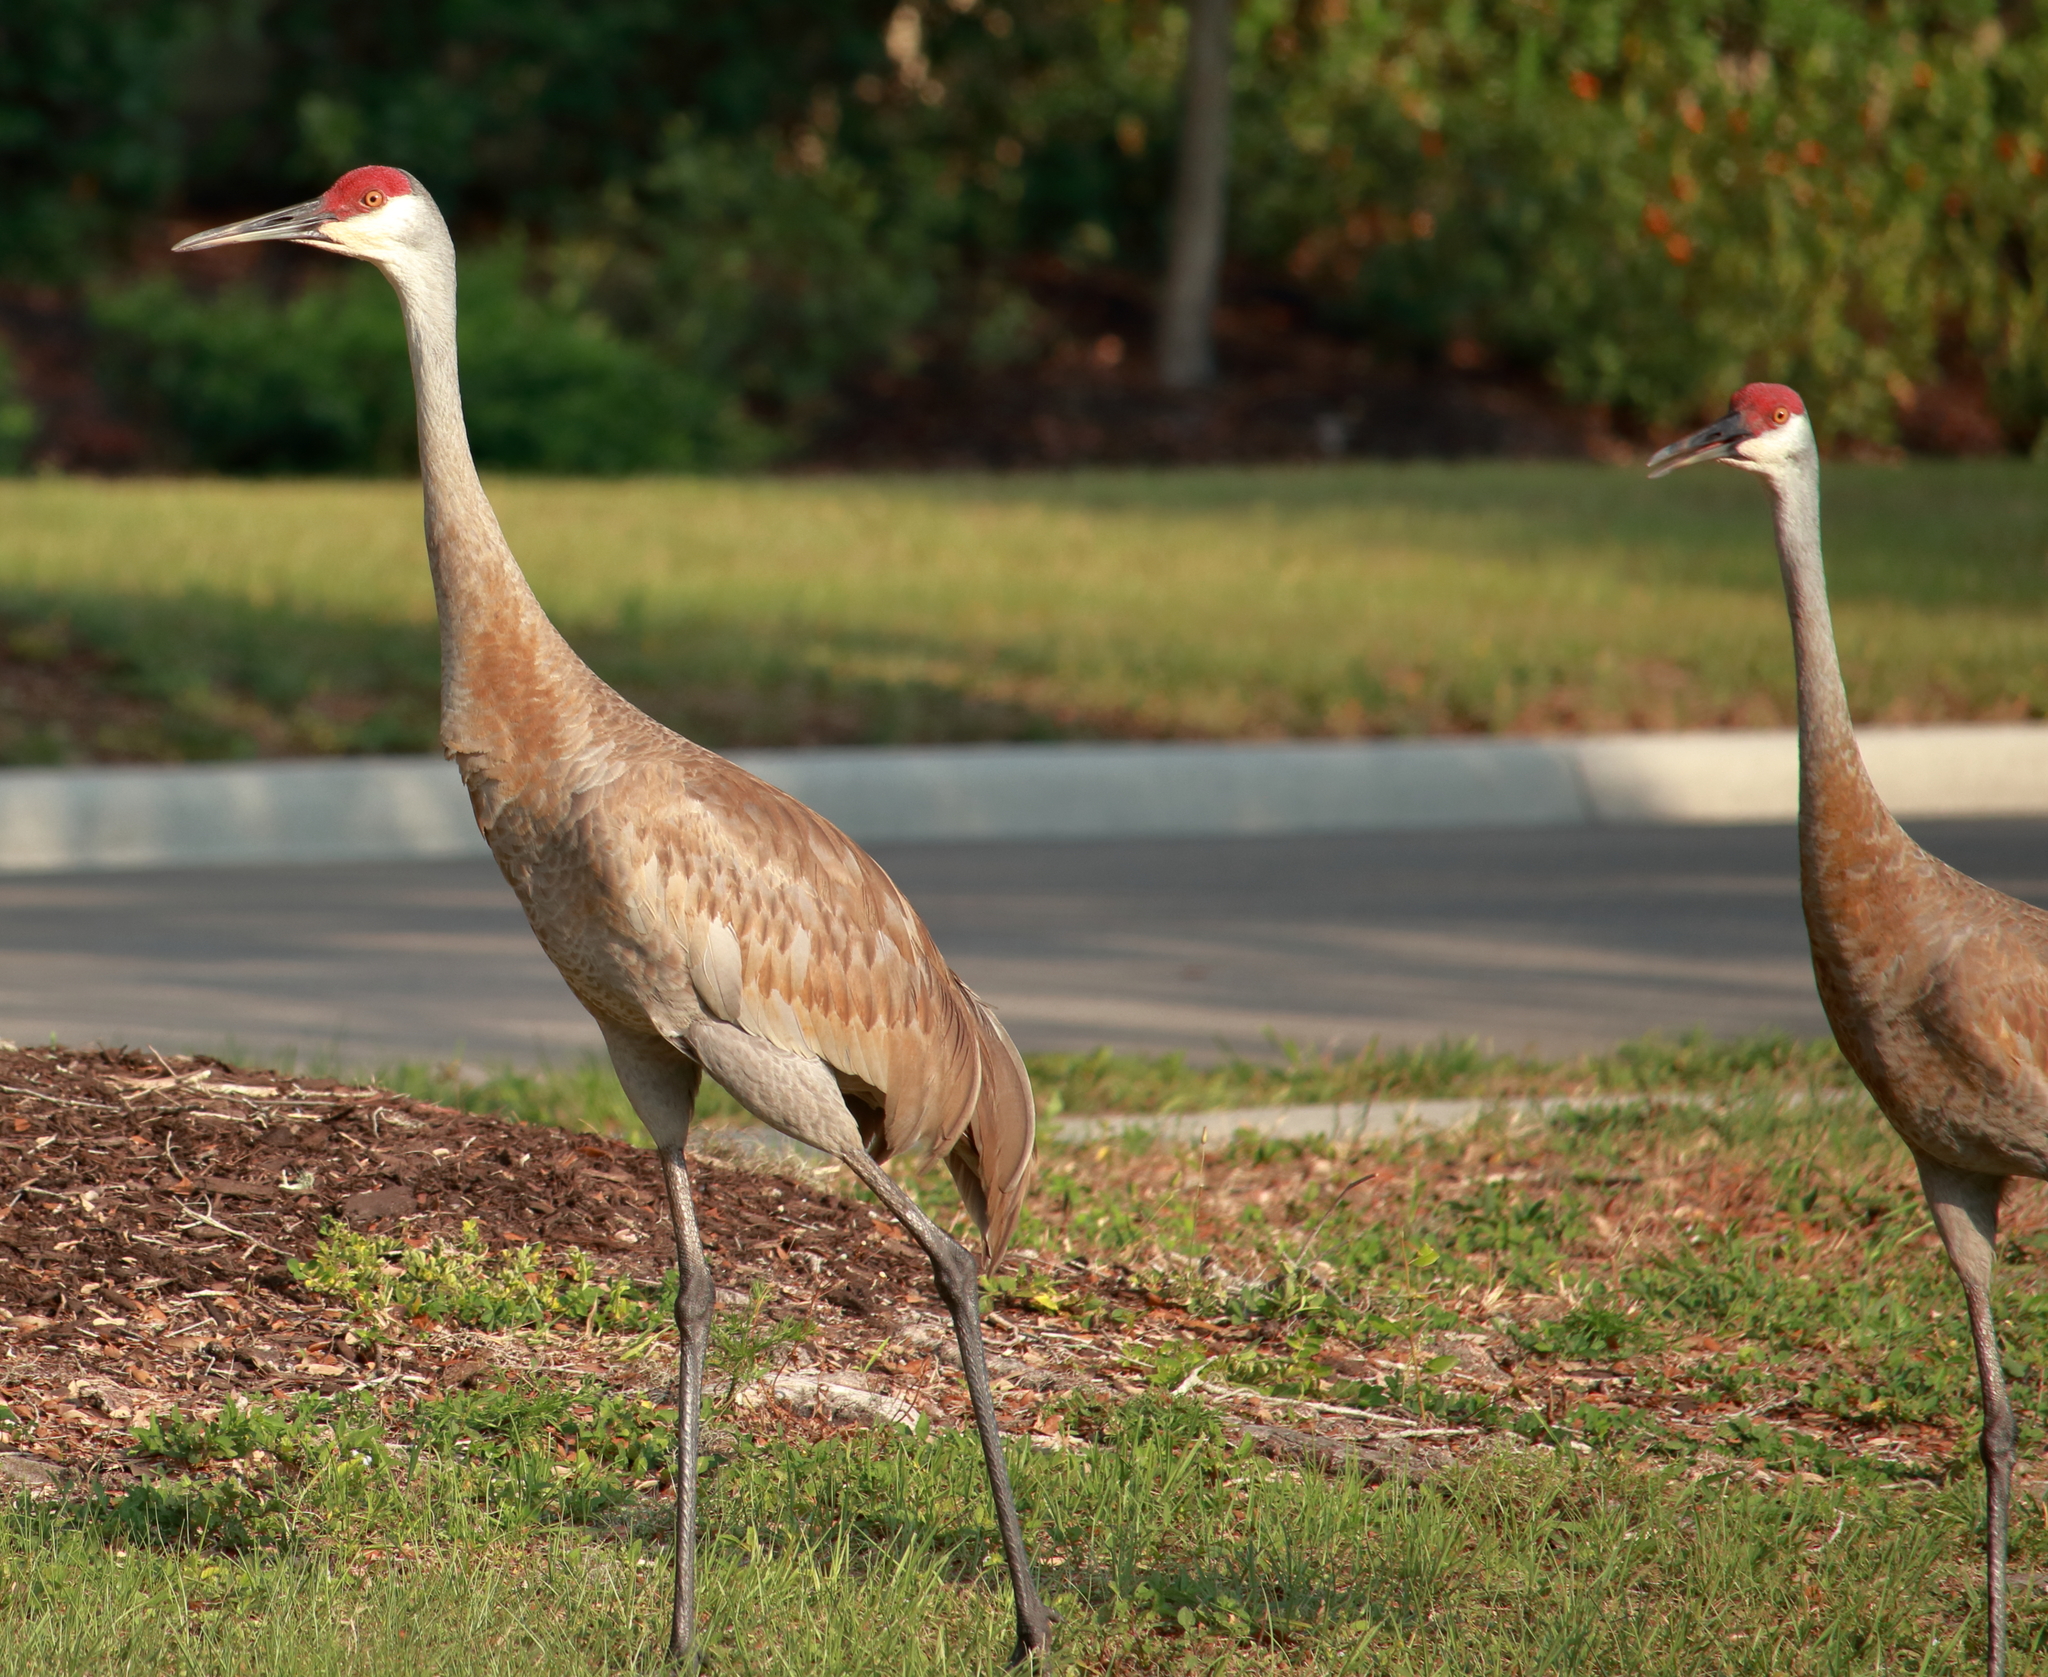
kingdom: Animalia
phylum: Chordata
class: Aves
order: Gruiformes
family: Gruidae
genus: Grus
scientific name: Grus canadensis
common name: Sandhill crane
